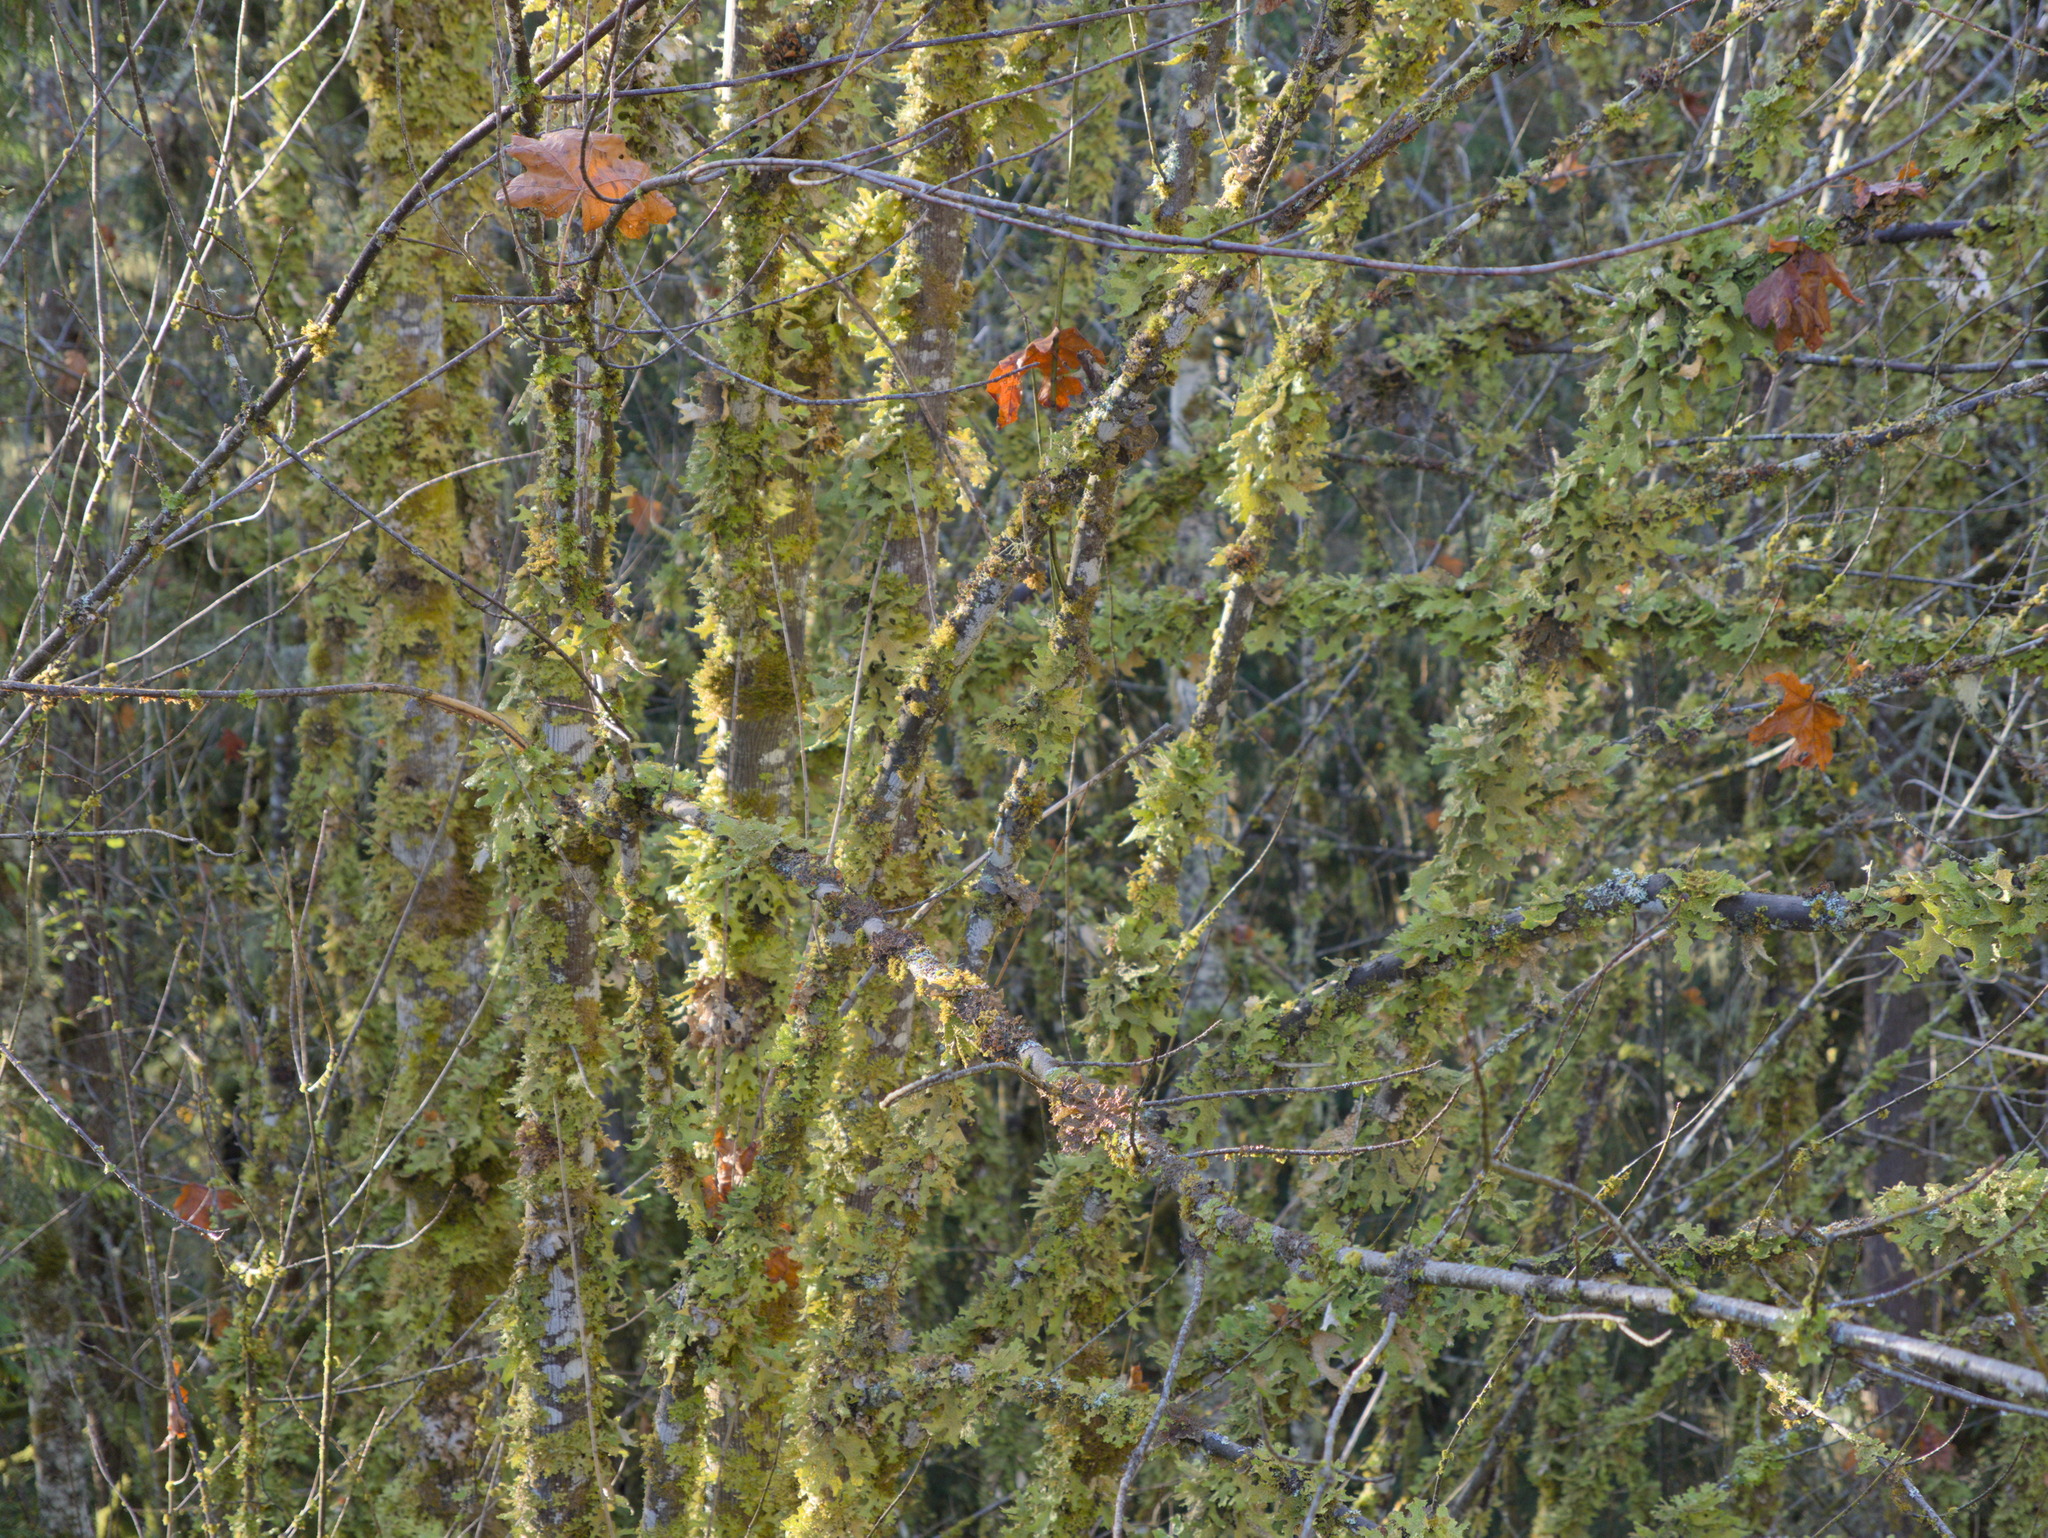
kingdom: Fungi
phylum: Ascomycota
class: Lecanoromycetes
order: Peltigerales
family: Lobariaceae
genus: Lobaria
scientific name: Lobaria pulmonaria
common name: Lungwort
